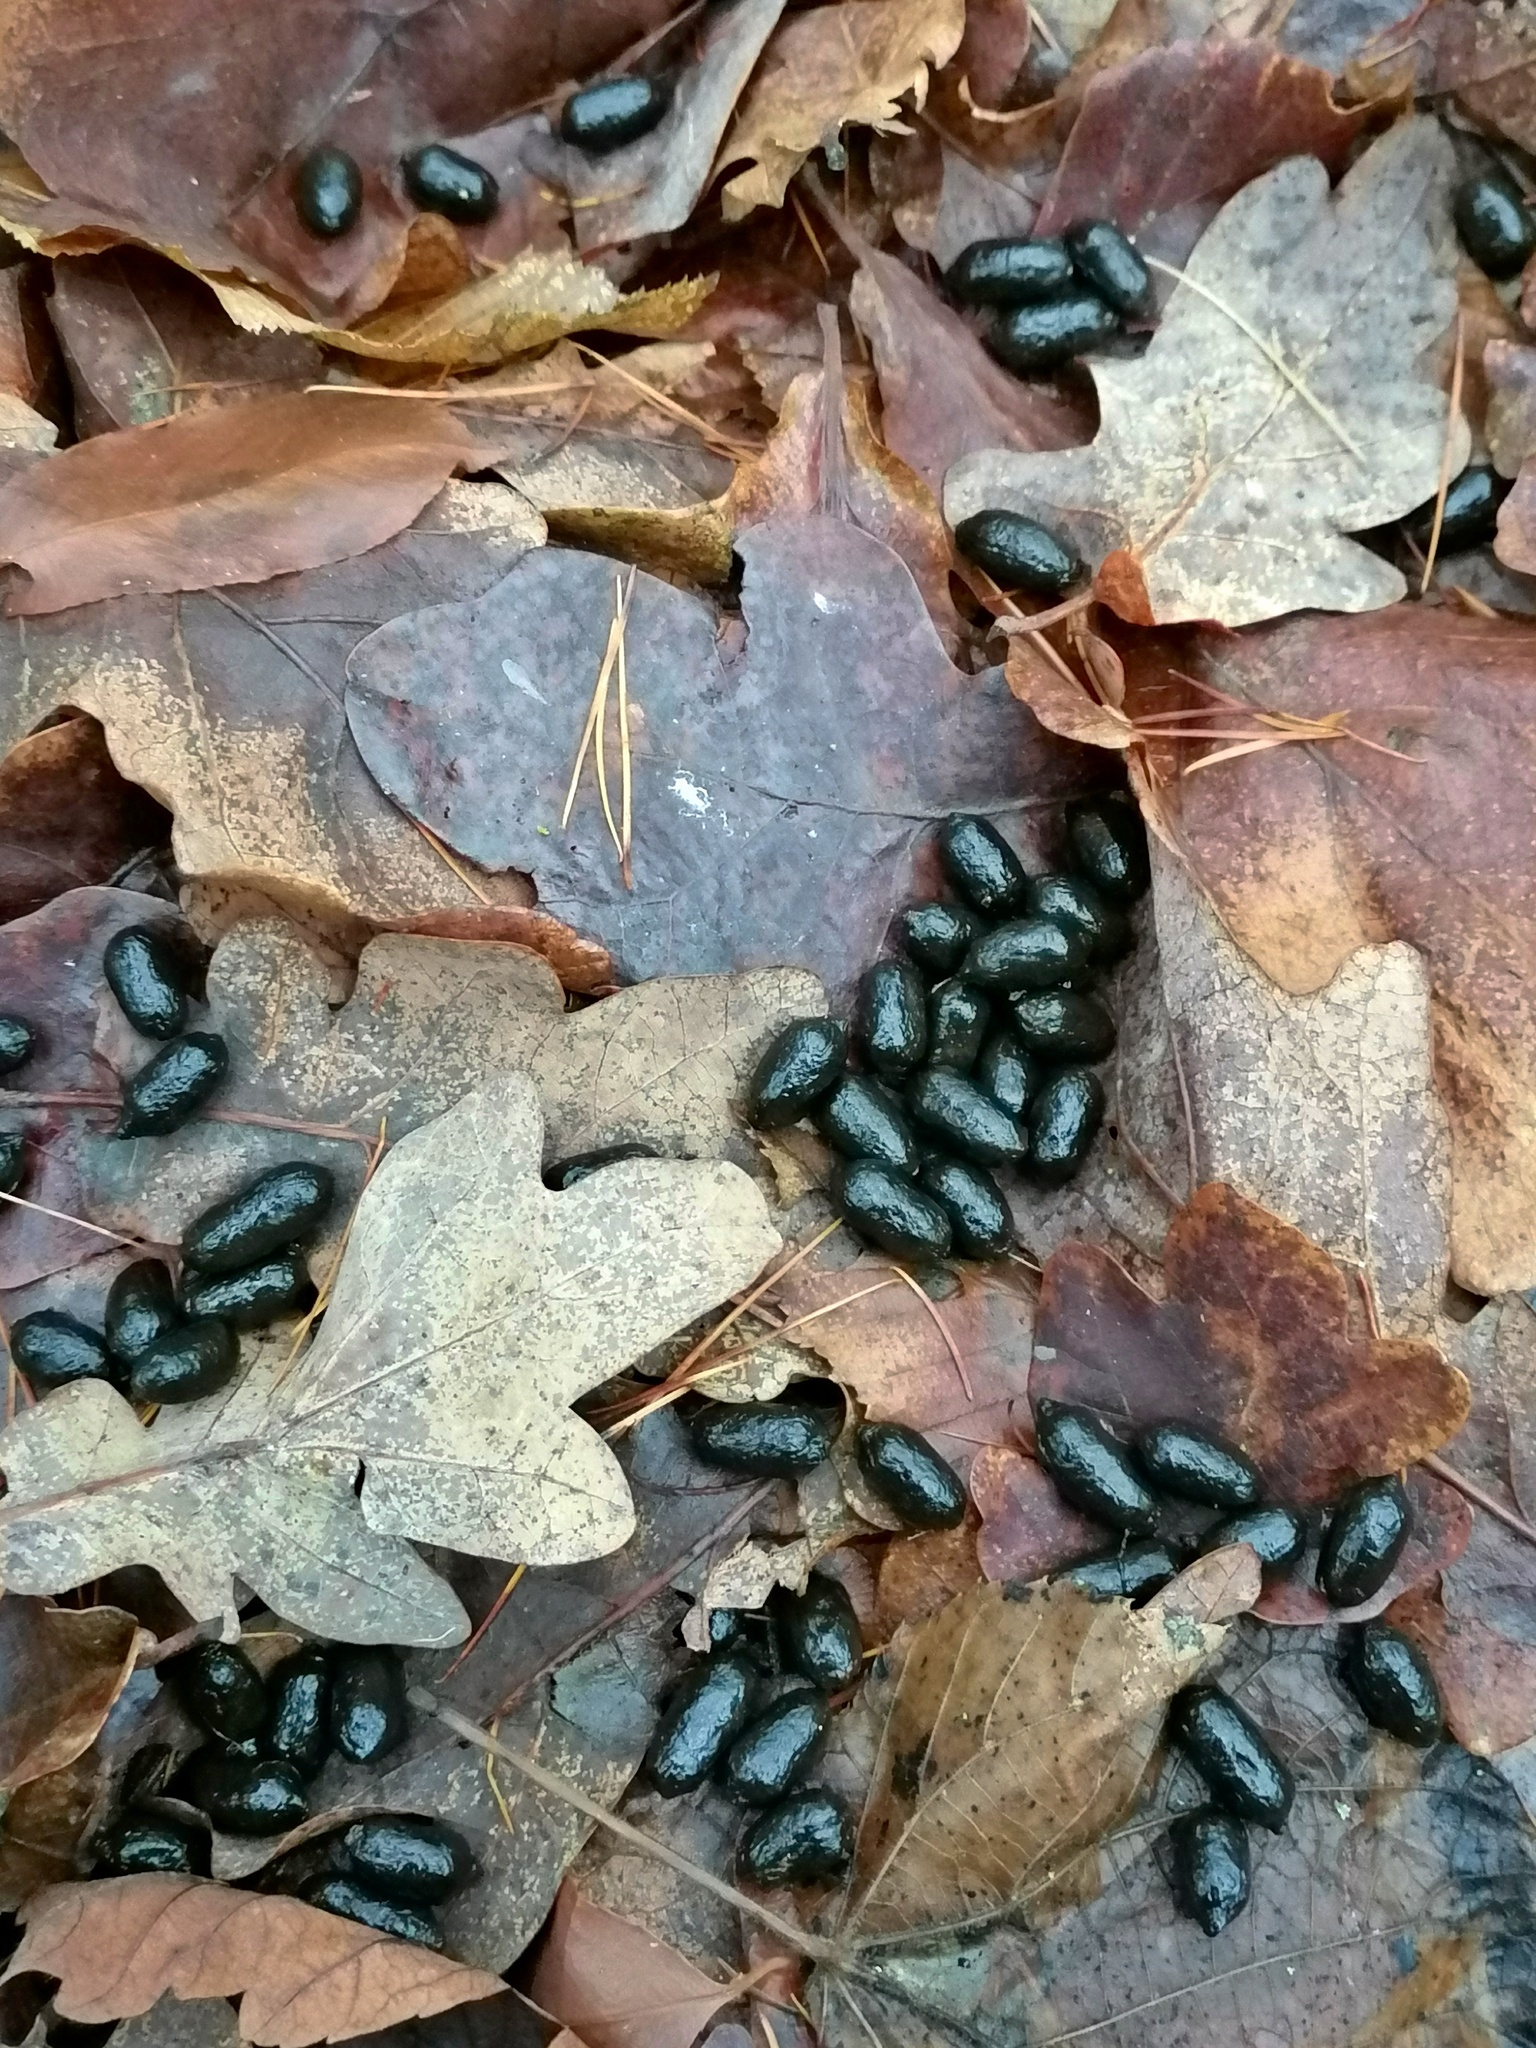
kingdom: Animalia
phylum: Chordata
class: Mammalia
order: Artiodactyla
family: Cervidae
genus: Capreolus
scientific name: Capreolus capreolus
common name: Western roe deer
